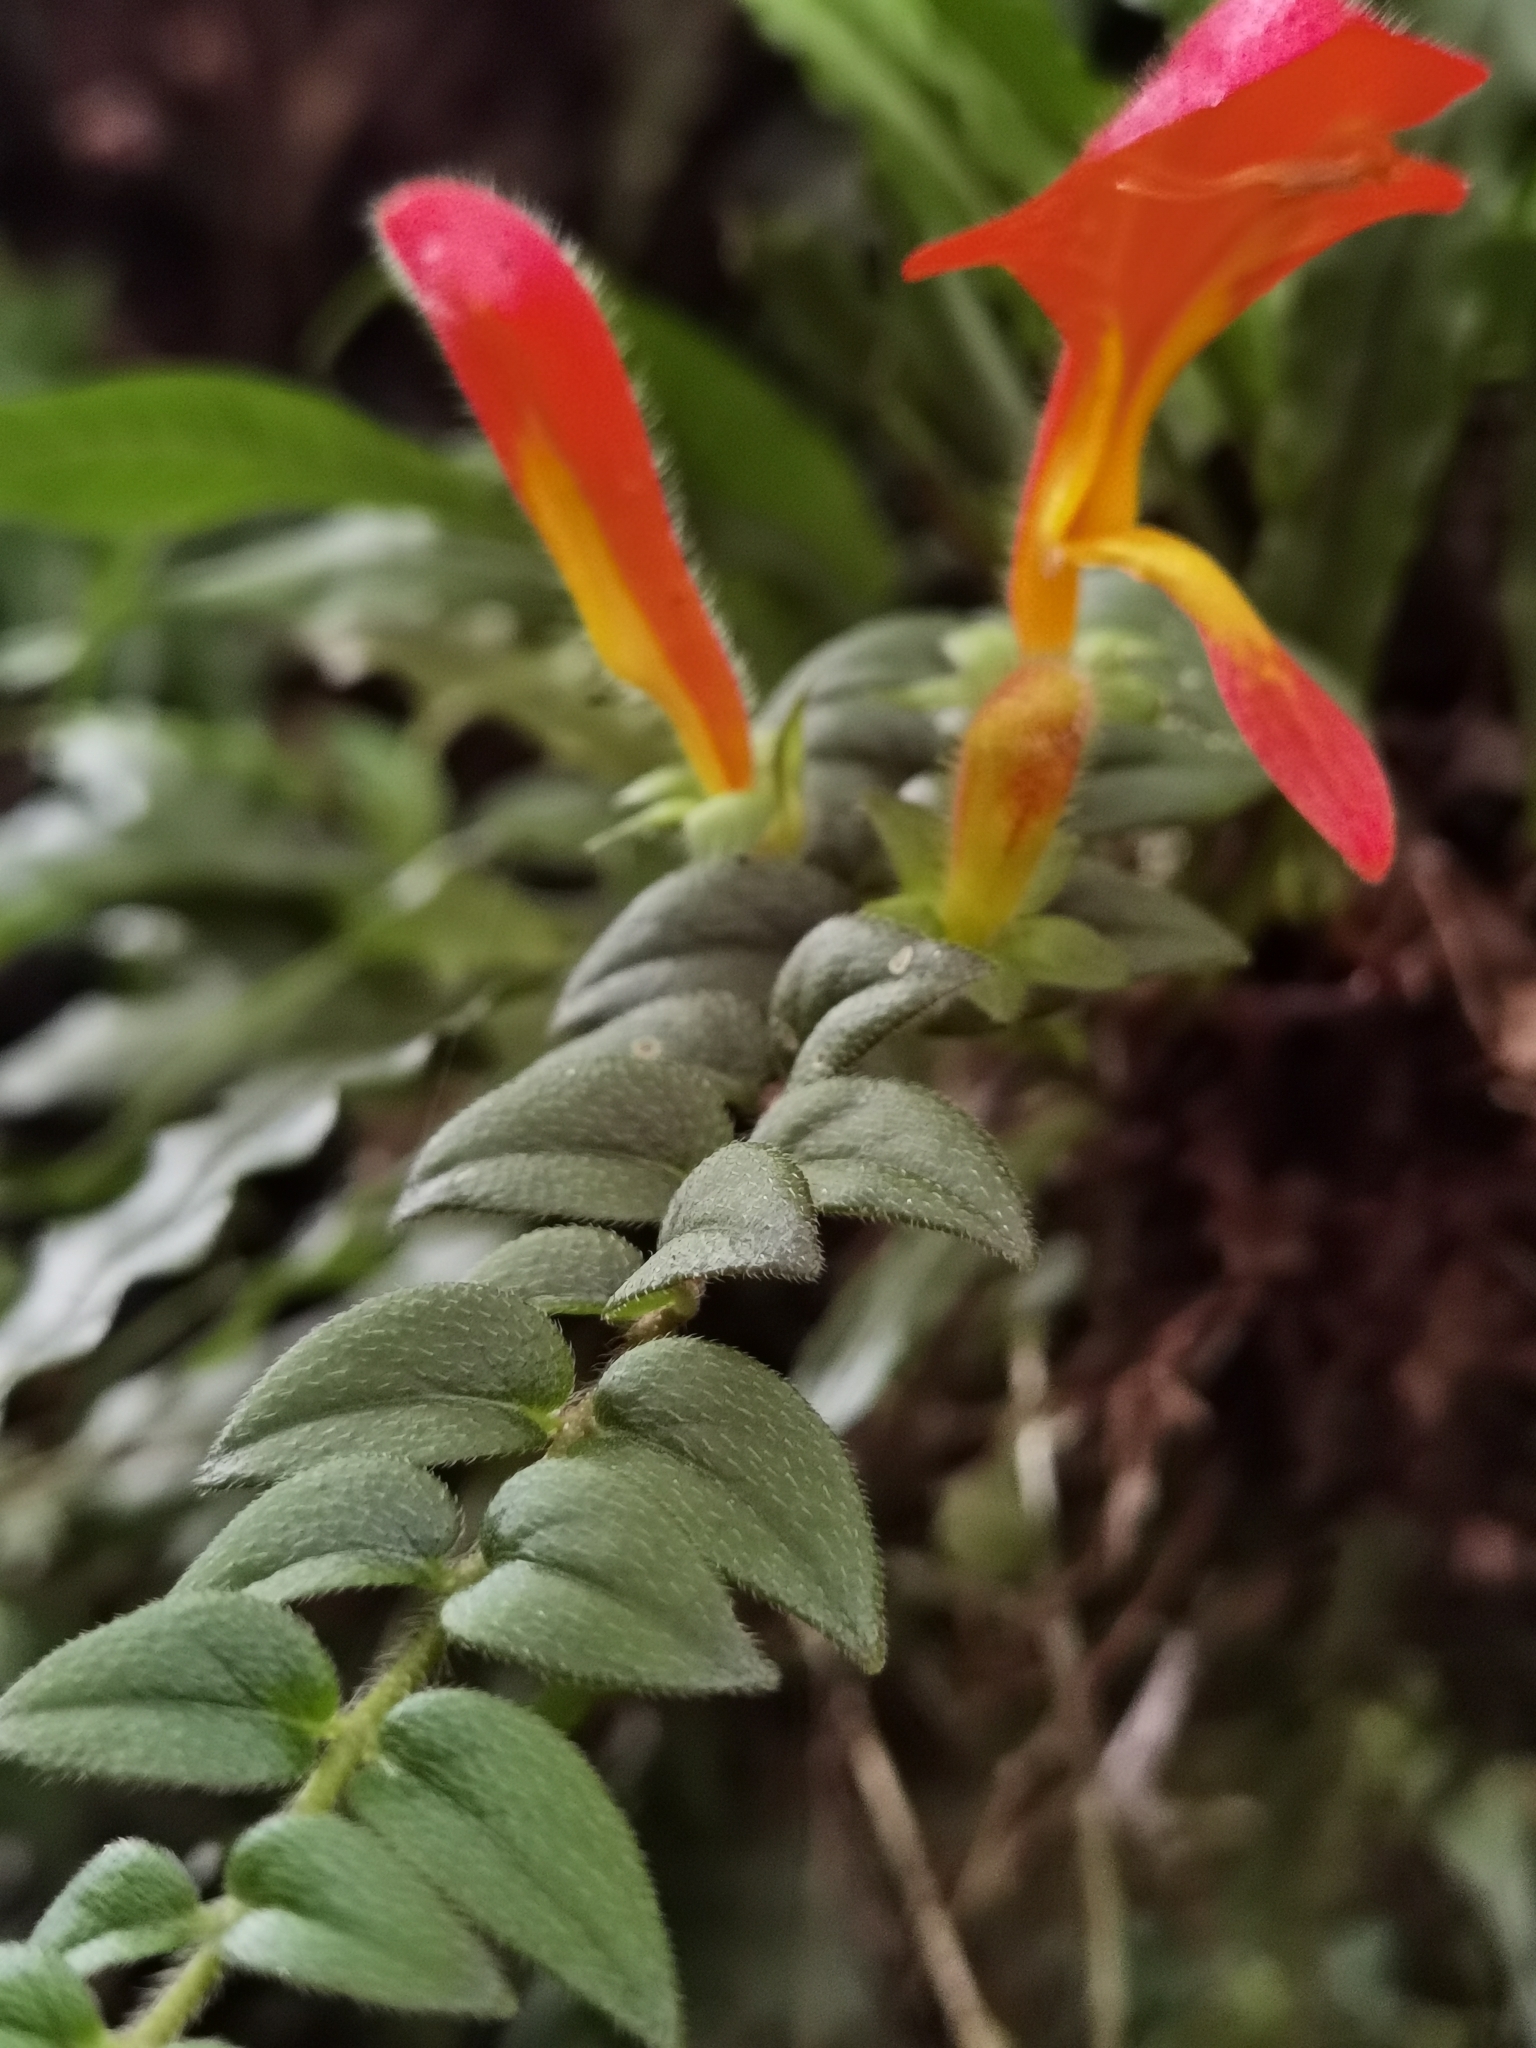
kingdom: Plantae
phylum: Tracheophyta
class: Magnoliopsida
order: Lamiales
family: Gesneriaceae
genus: Columnea
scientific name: Columnea microcalyx
